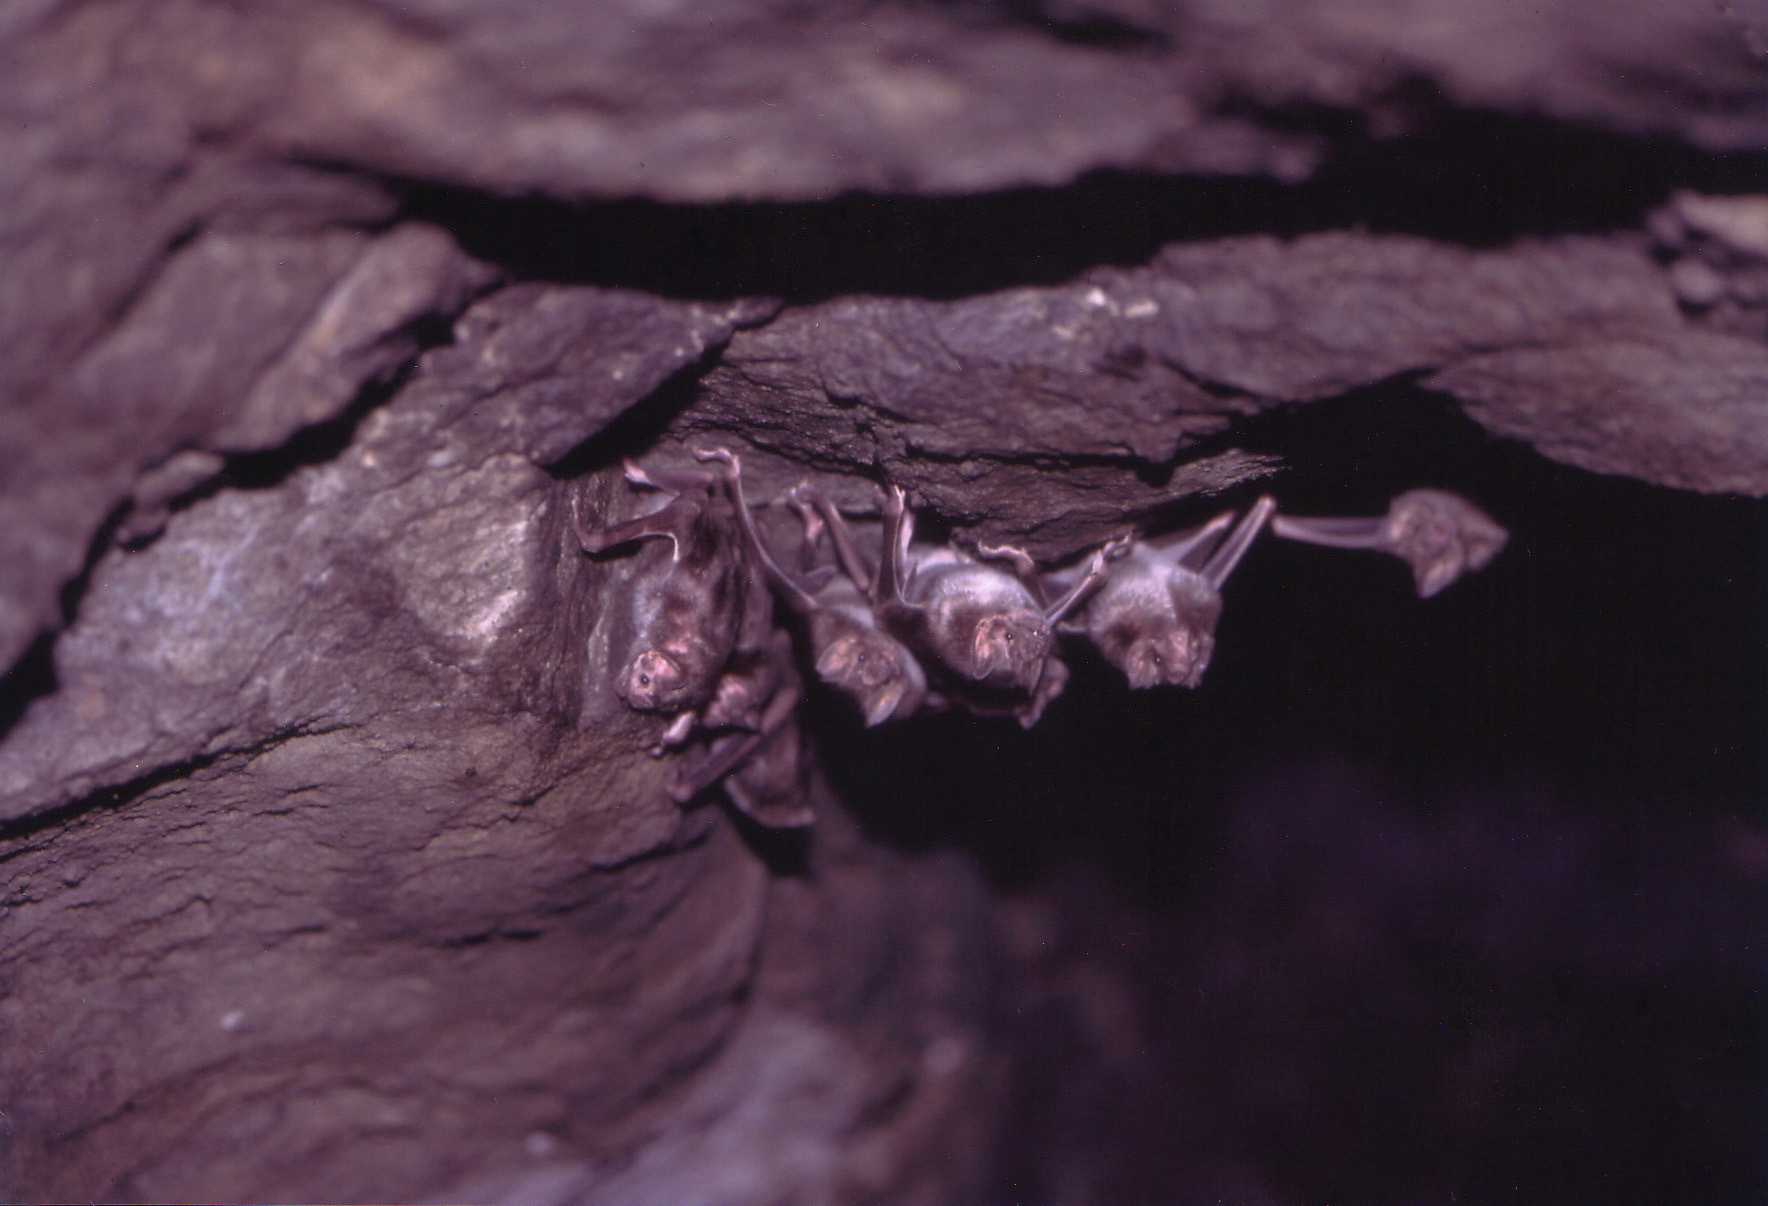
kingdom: Animalia
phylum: Chordata
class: Mammalia
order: Chiroptera
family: Phyllostomidae
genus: Desmodus
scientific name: Desmodus rotundus
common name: Common vampire bat
